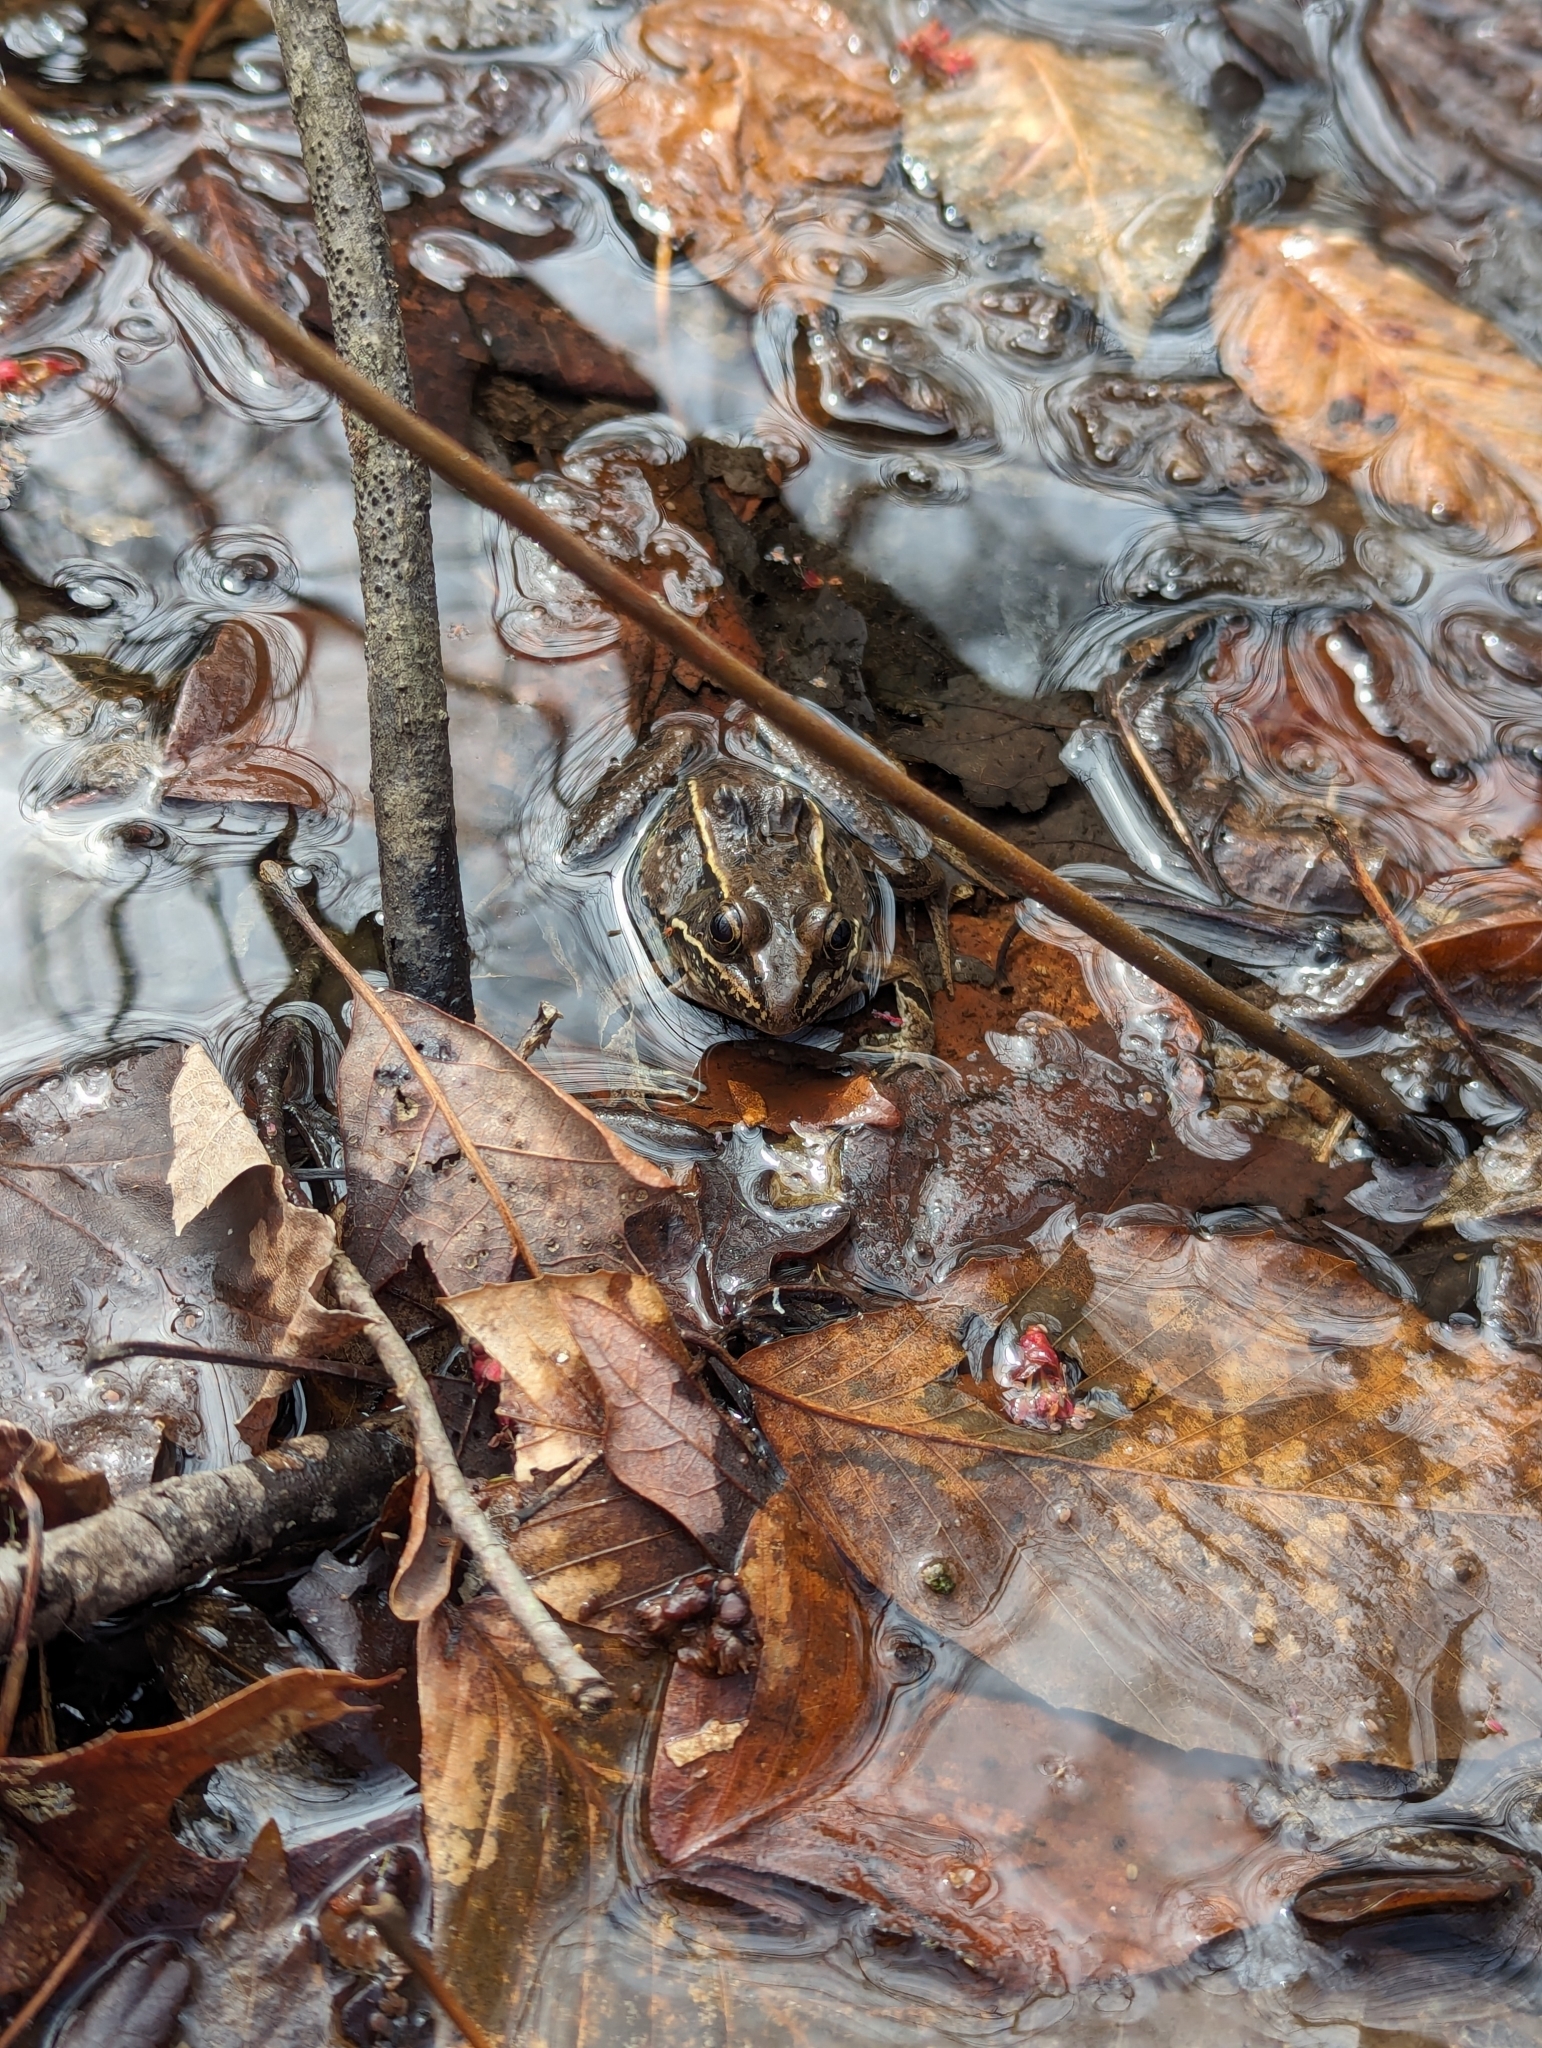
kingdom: Animalia
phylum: Chordata
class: Amphibia
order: Anura
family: Ranidae
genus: Lithobates
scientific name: Lithobates sphenocephalus
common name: Southern leopard frog
